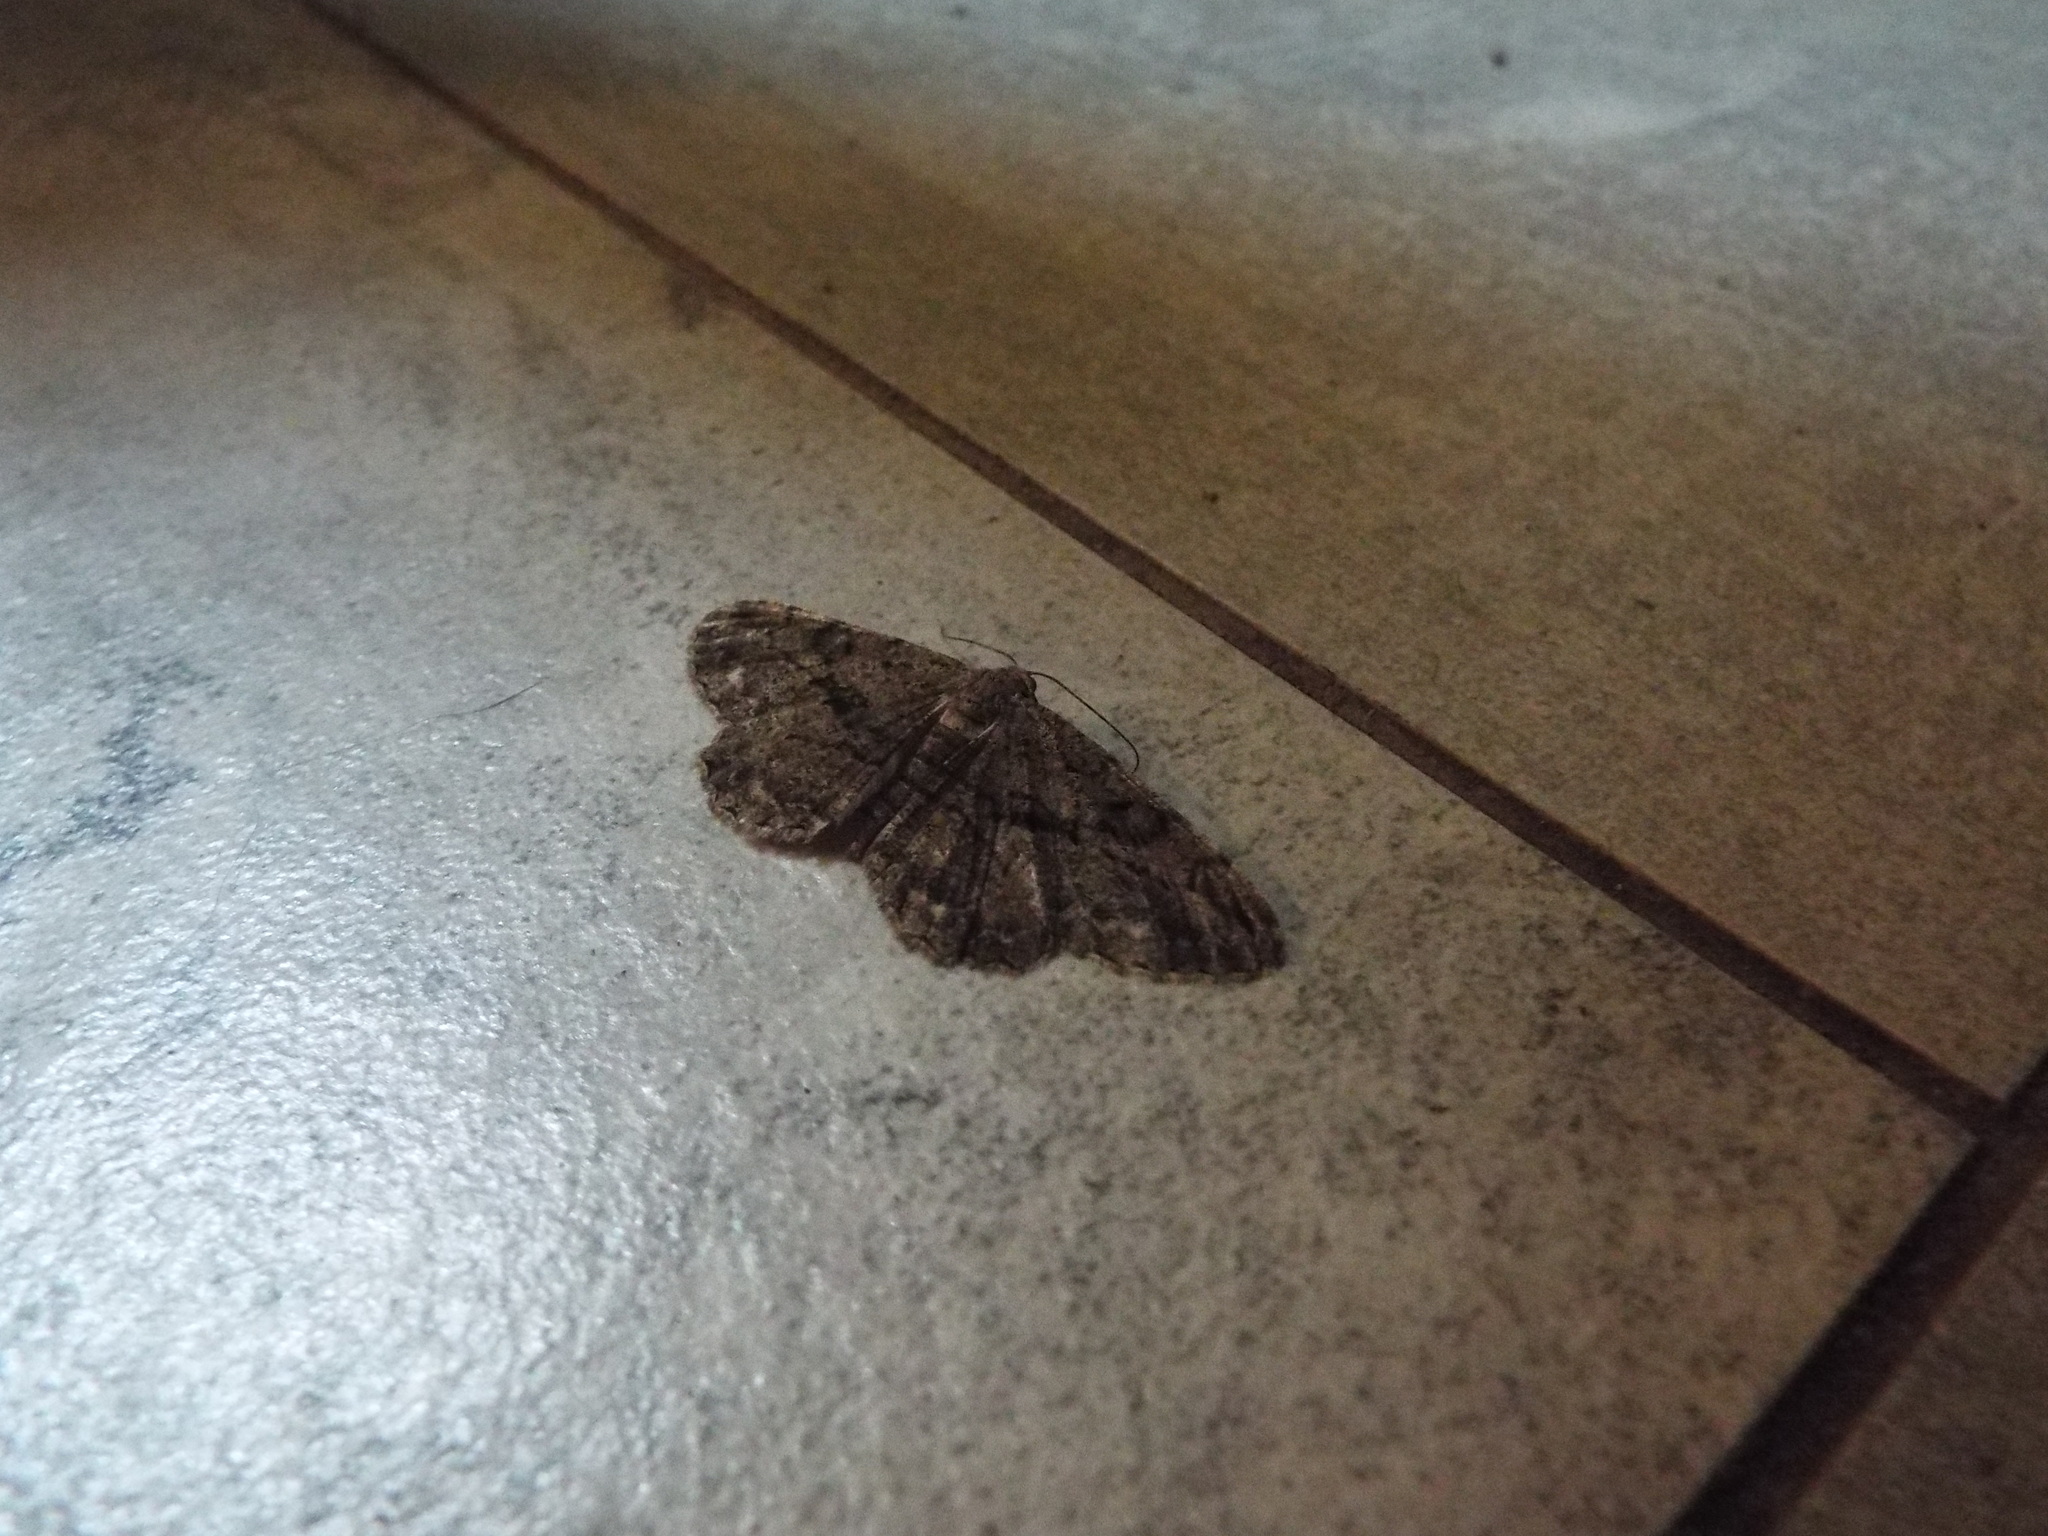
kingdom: Animalia
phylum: Arthropoda
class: Insecta
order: Lepidoptera
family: Geometridae
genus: Peribatodes
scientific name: Peribatodes rhomboidaria
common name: Willow beauty
